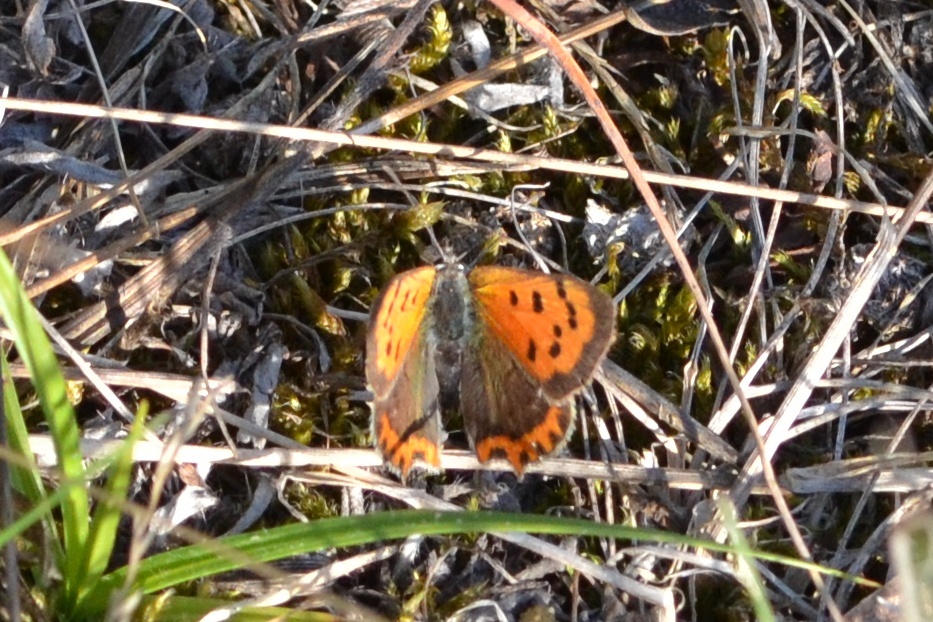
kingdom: Animalia
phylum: Arthropoda
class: Insecta
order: Lepidoptera
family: Lycaenidae
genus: Lycaena
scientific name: Lycaena phlaeas
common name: Small copper
